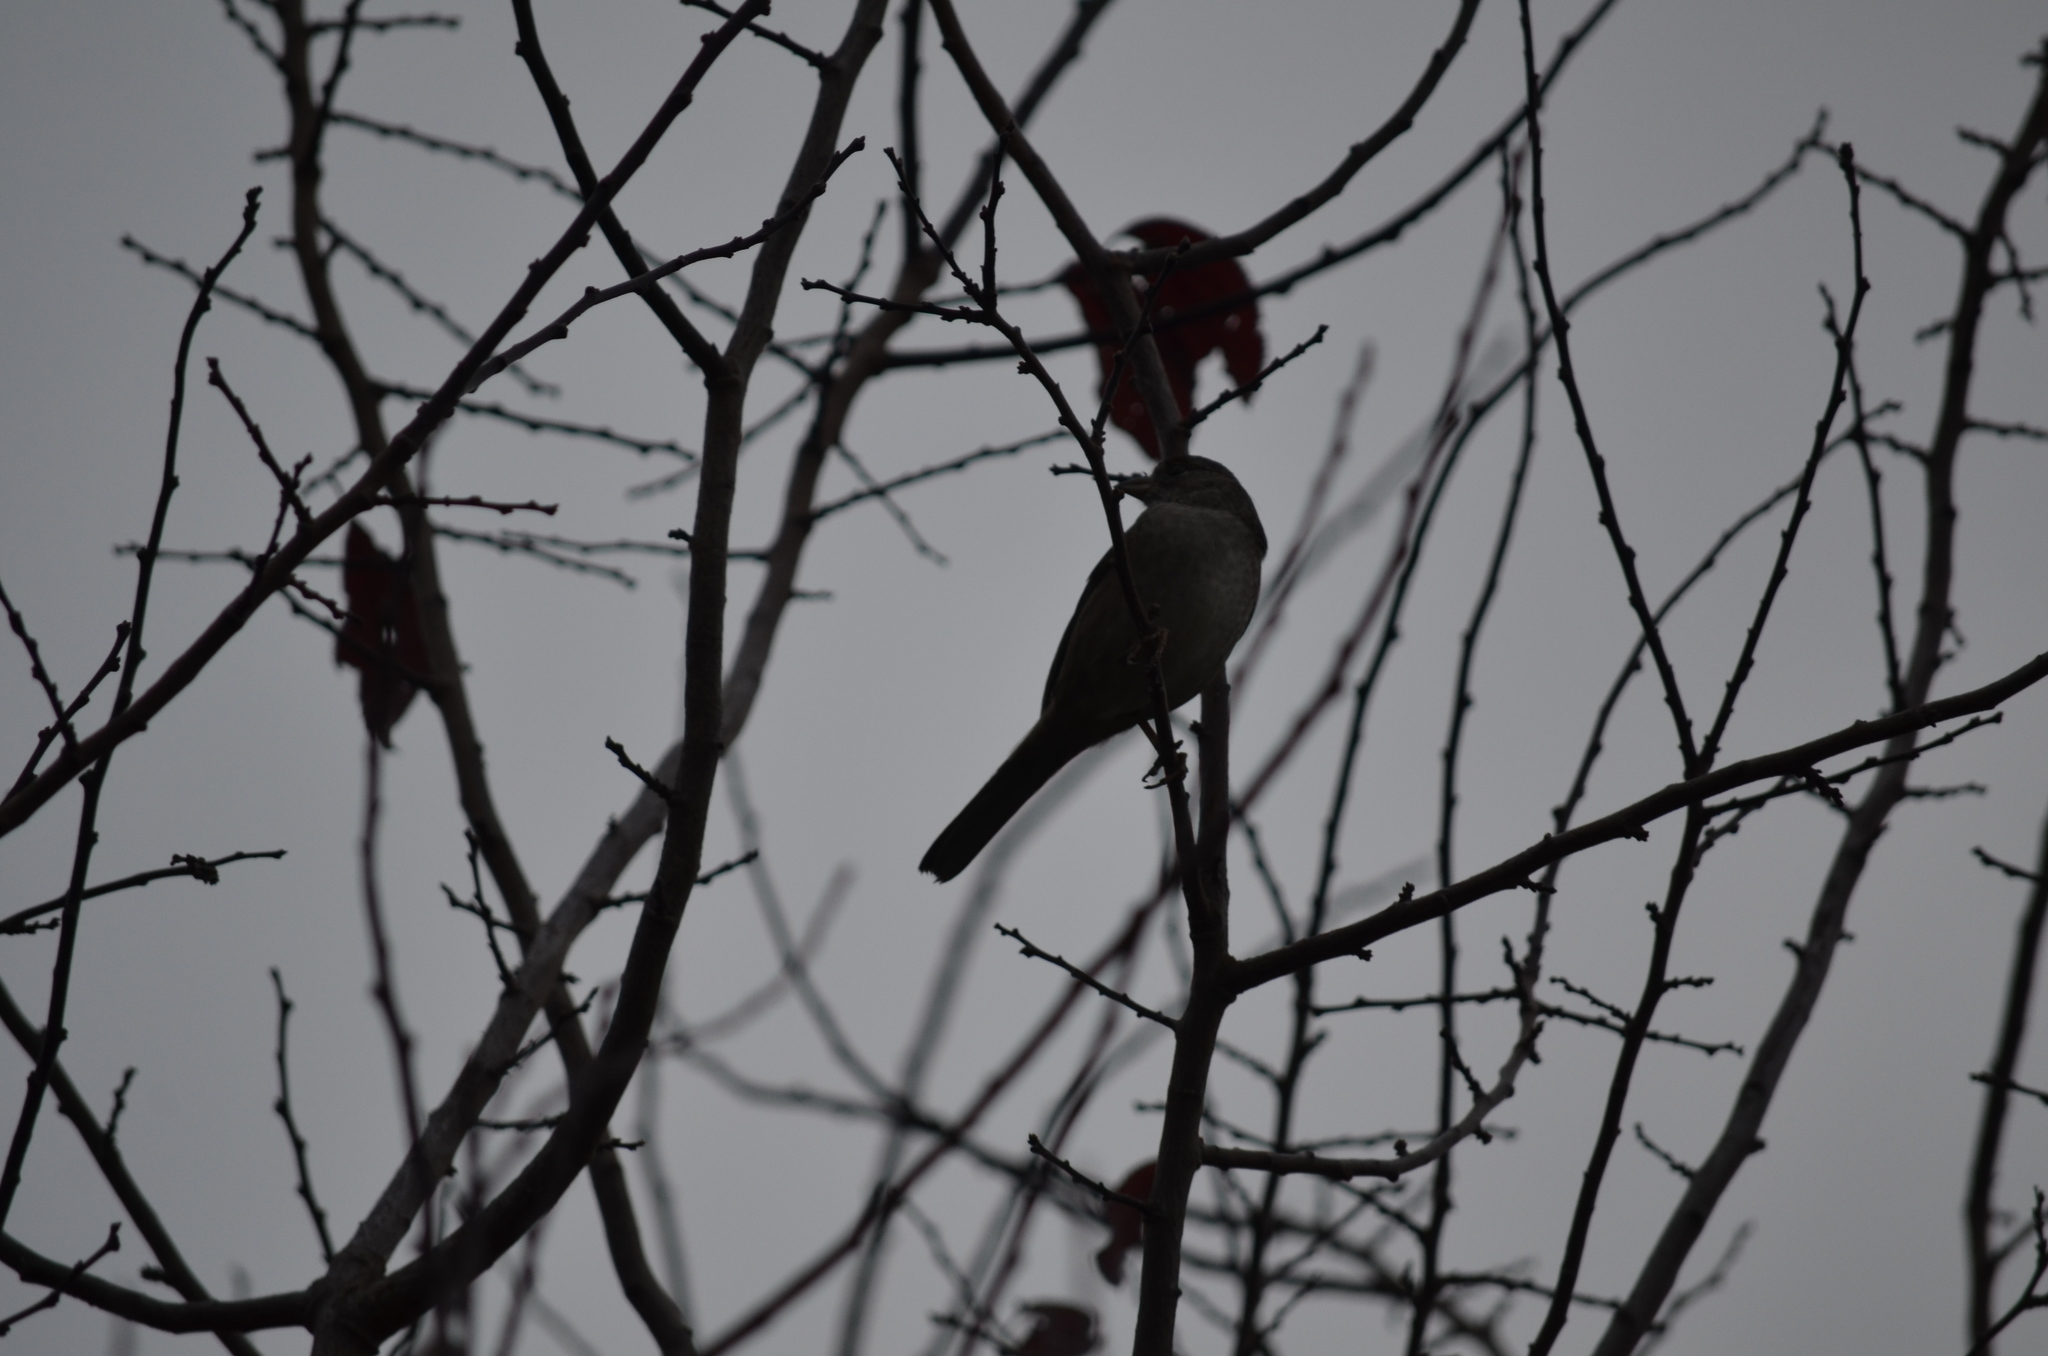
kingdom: Animalia
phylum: Chordata
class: Aves
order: Passeriformes
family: Passerellidae
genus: Zonotrichia
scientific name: Zonotrichia atricapilla
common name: Golden-crowned sparrow
